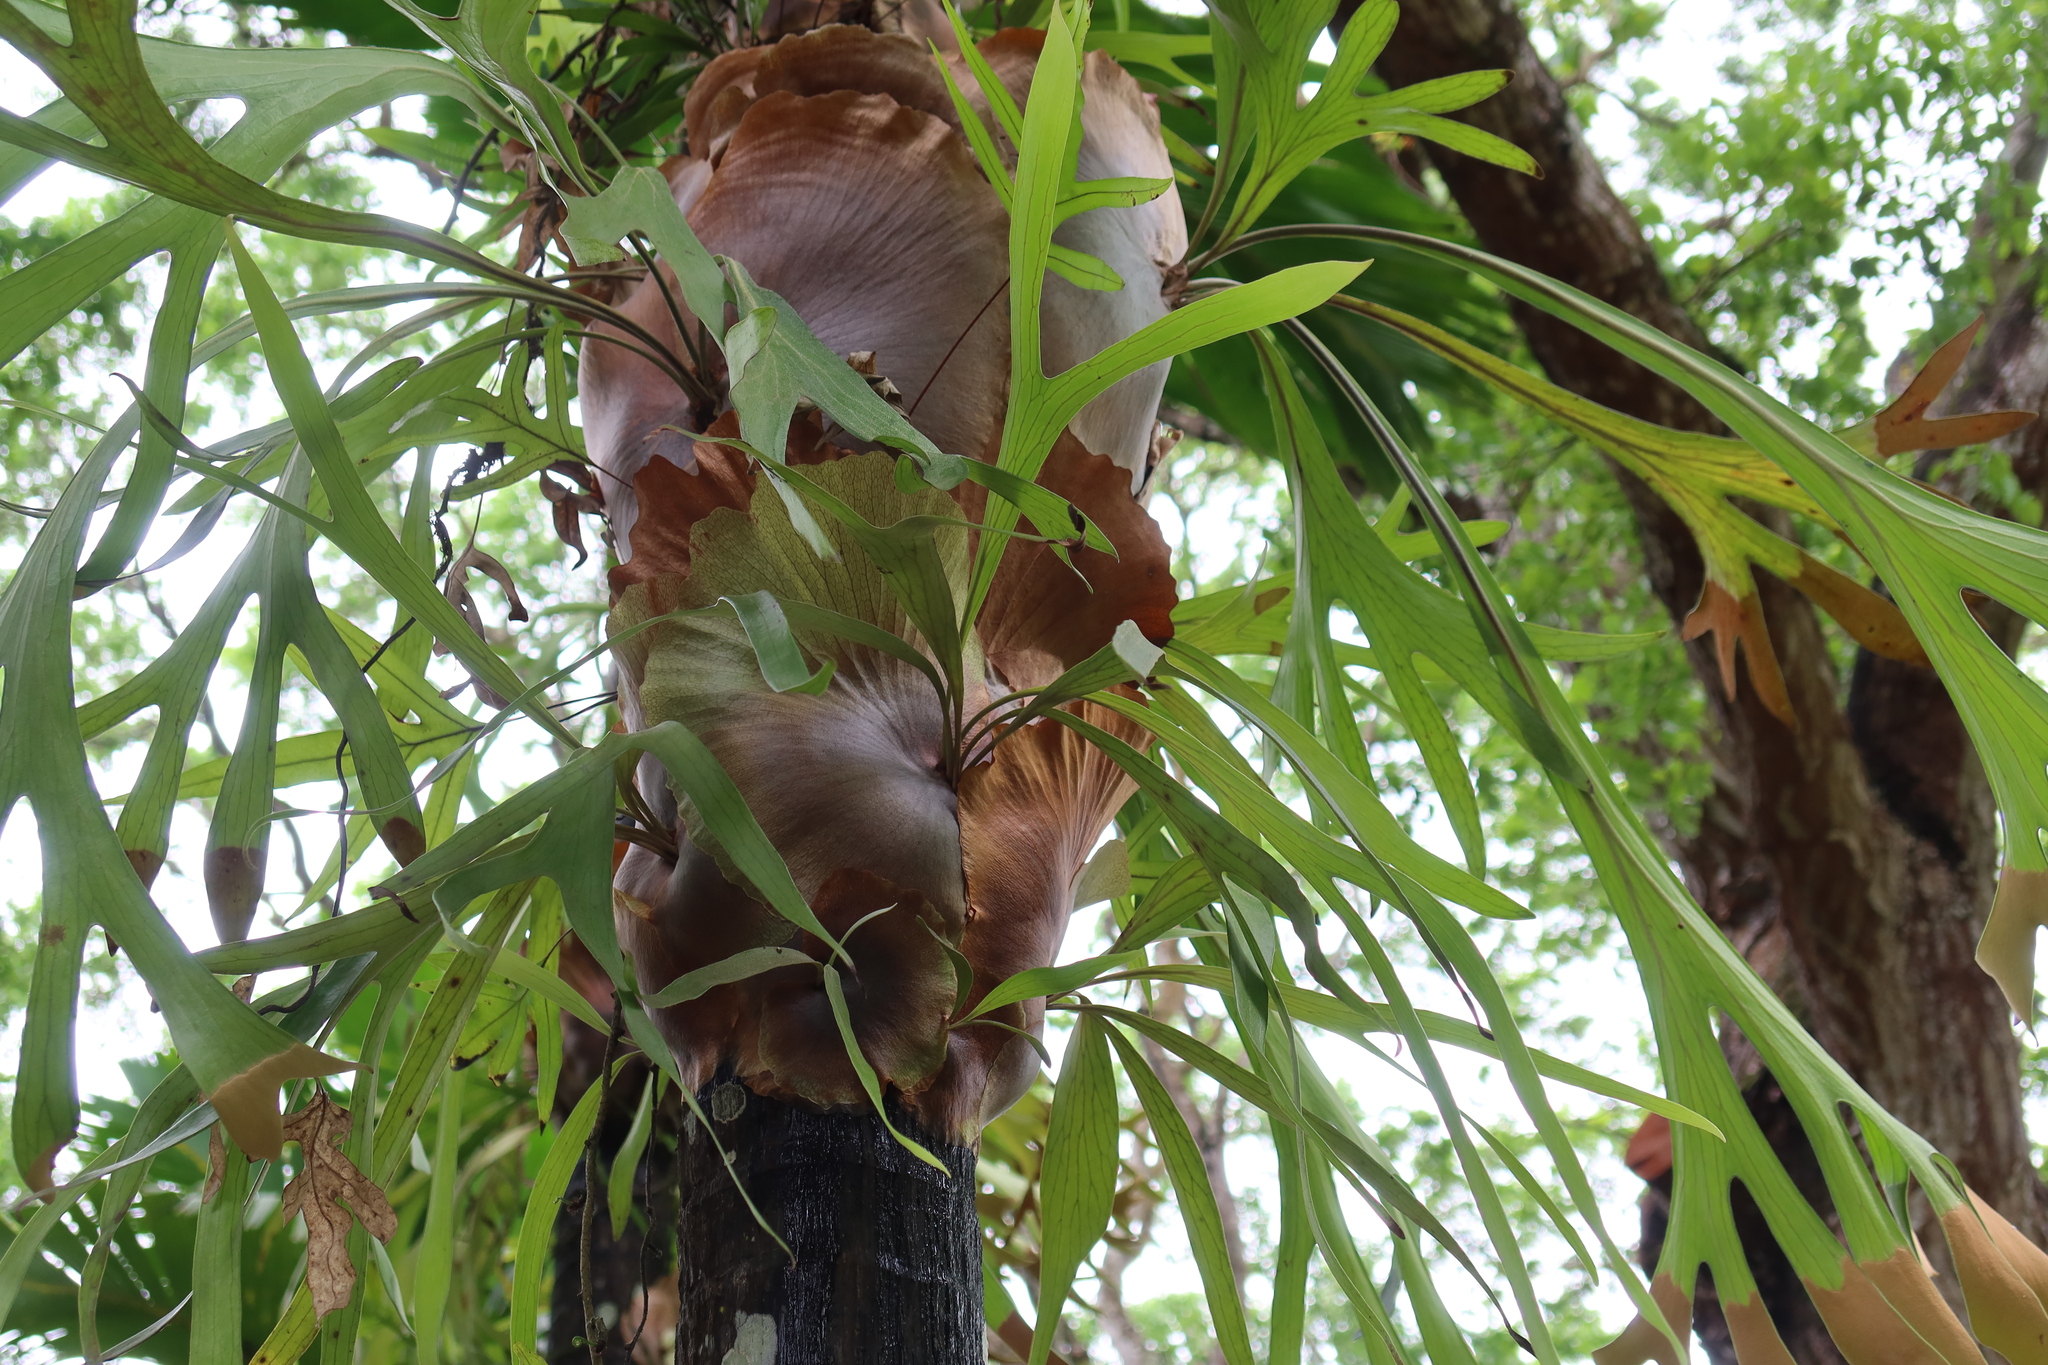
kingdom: Plantae
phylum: Tracheophyta
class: Polypodiopsida
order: Polypodiales
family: Polypodiaceae
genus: Platycerium
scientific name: Platycerium bifurcatum
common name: Elkhorn fern
